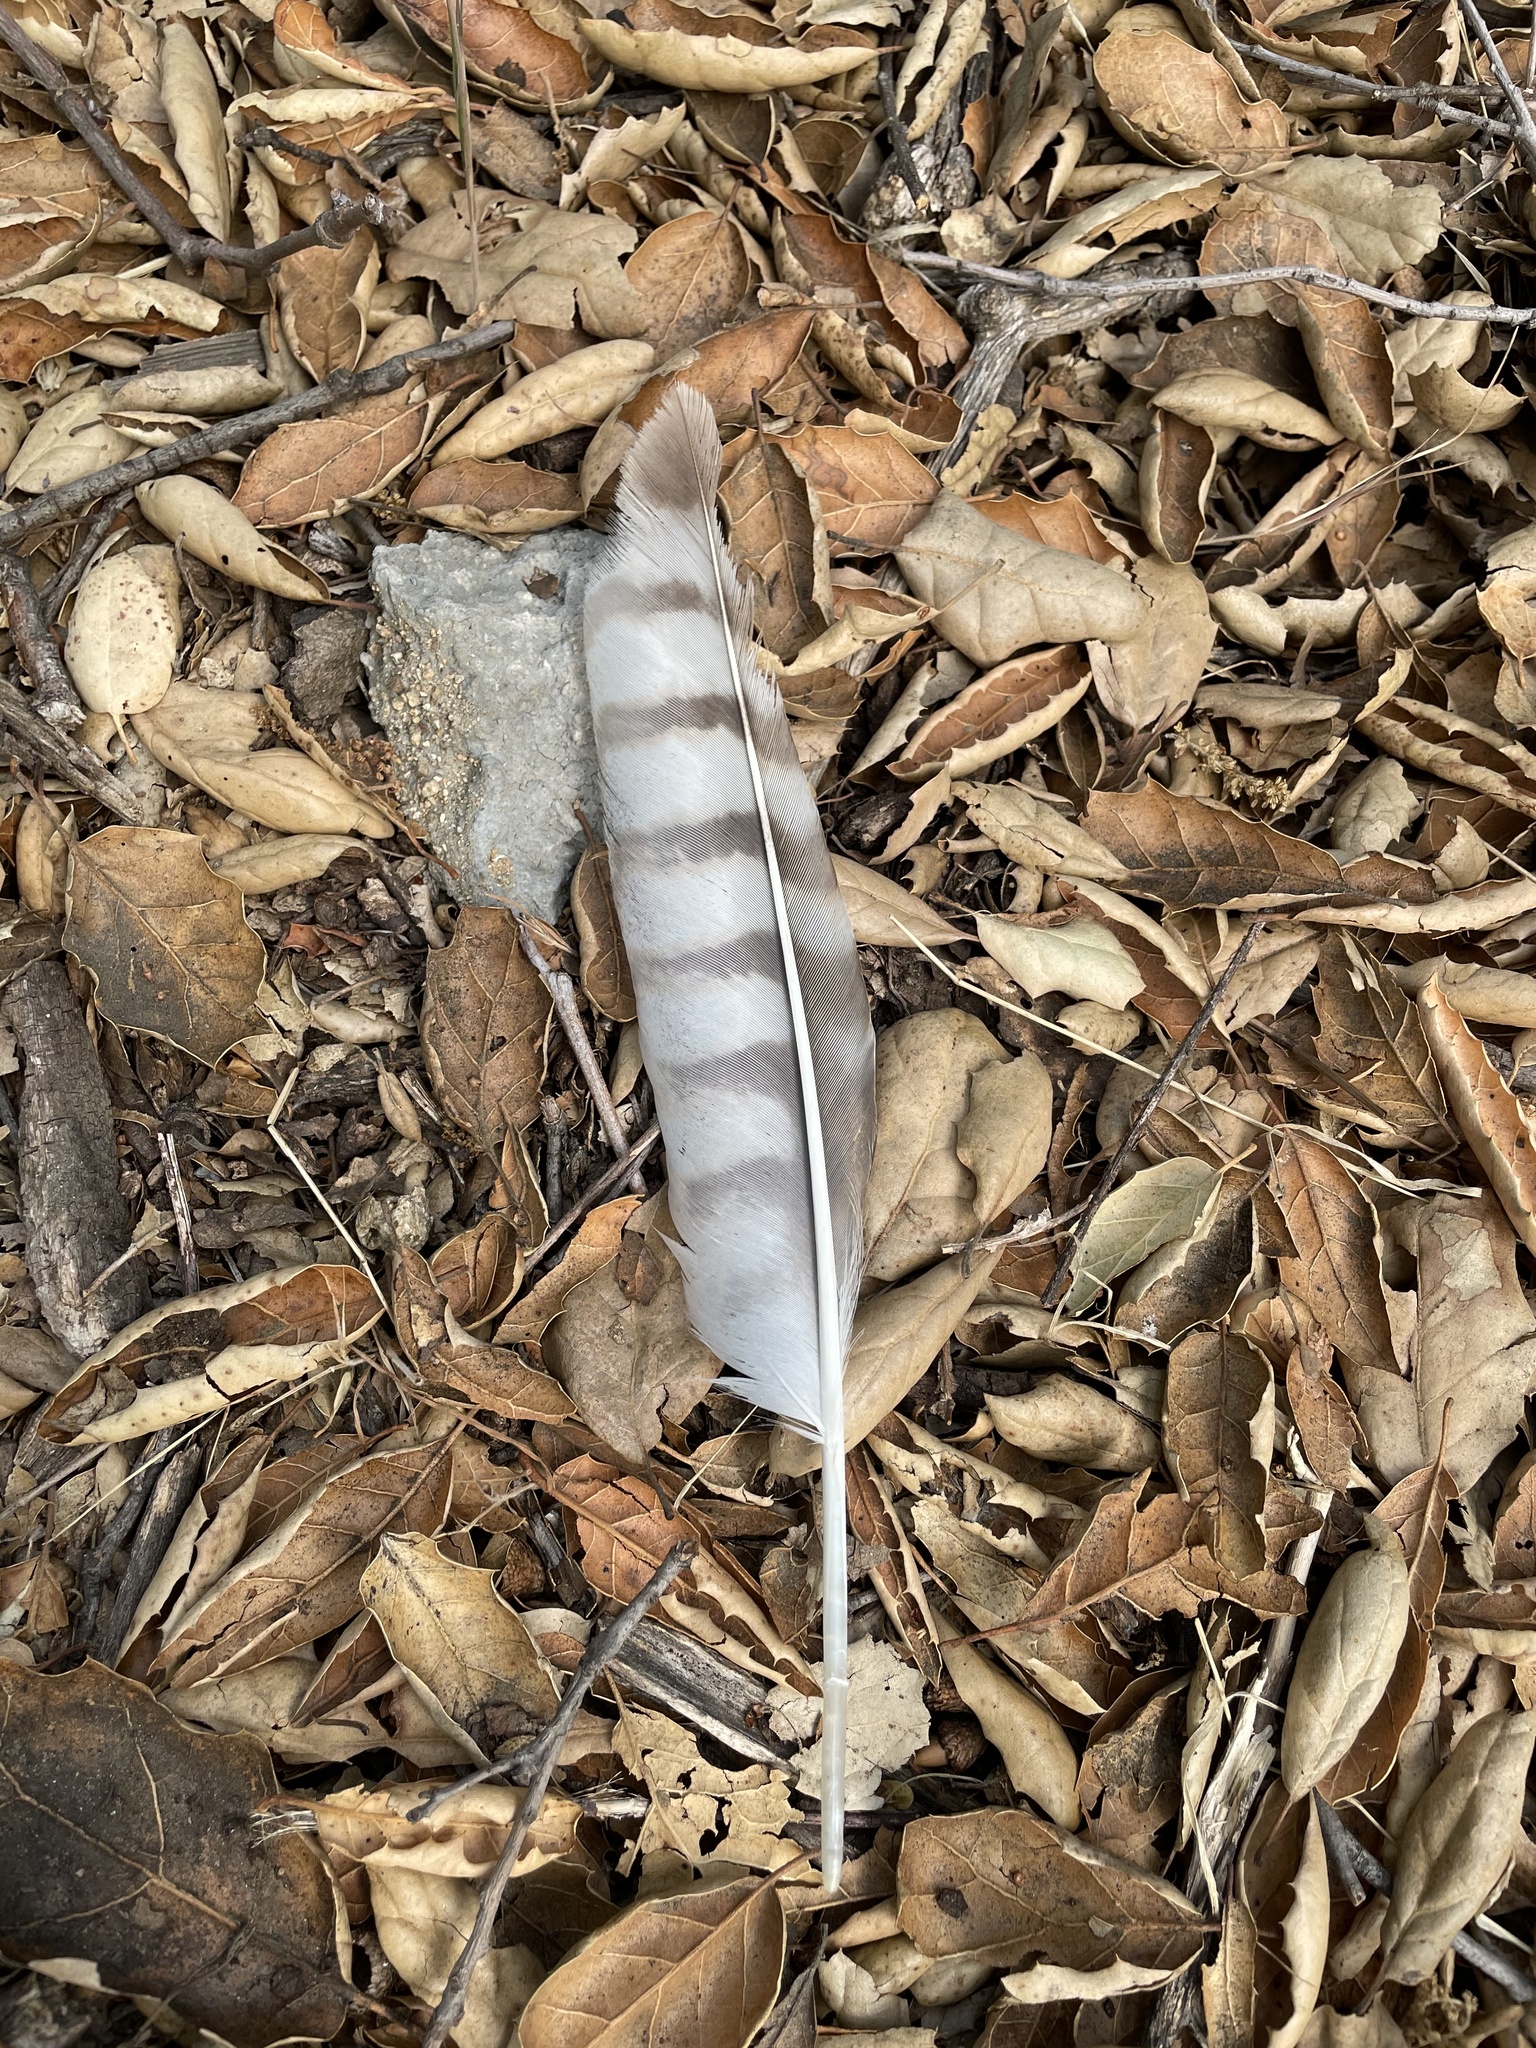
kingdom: Animalia
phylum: Chordata
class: Aves
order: Accipitriformes
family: Accipitridae
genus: Buteo
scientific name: Buteo lineatus
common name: Red-shouldered hawk
